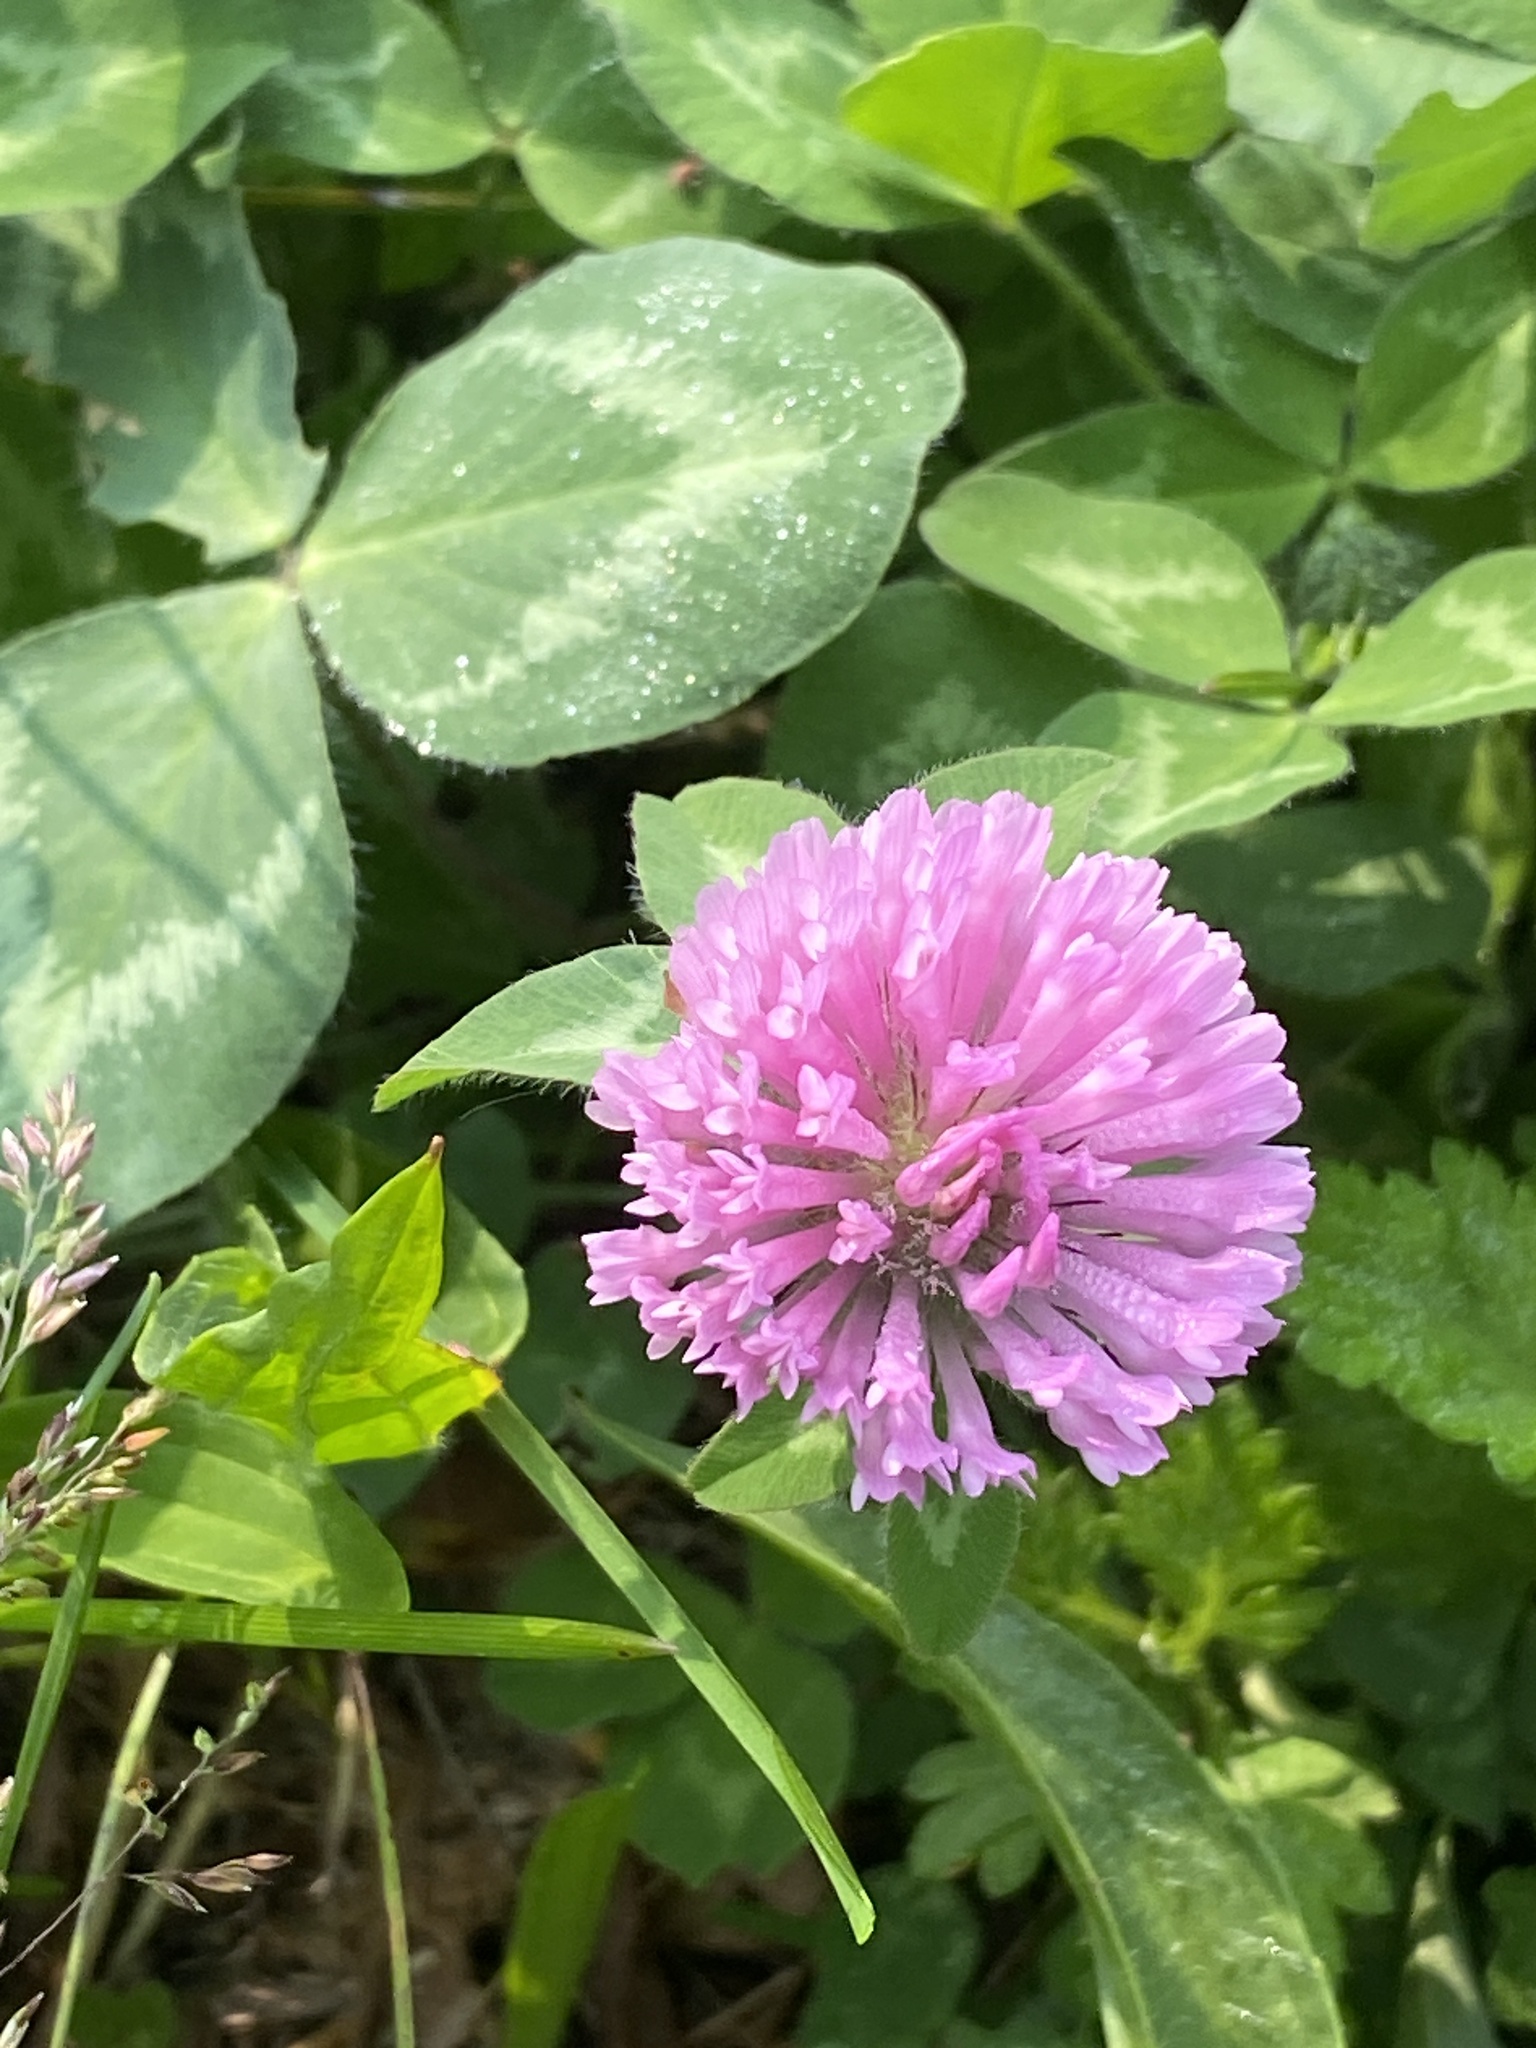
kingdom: Plantae
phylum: Tracheophyta
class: Magnoliopsida
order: Fabales
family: Fabaceae
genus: Trifolium
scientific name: Trifolium pratense
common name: Red clover
